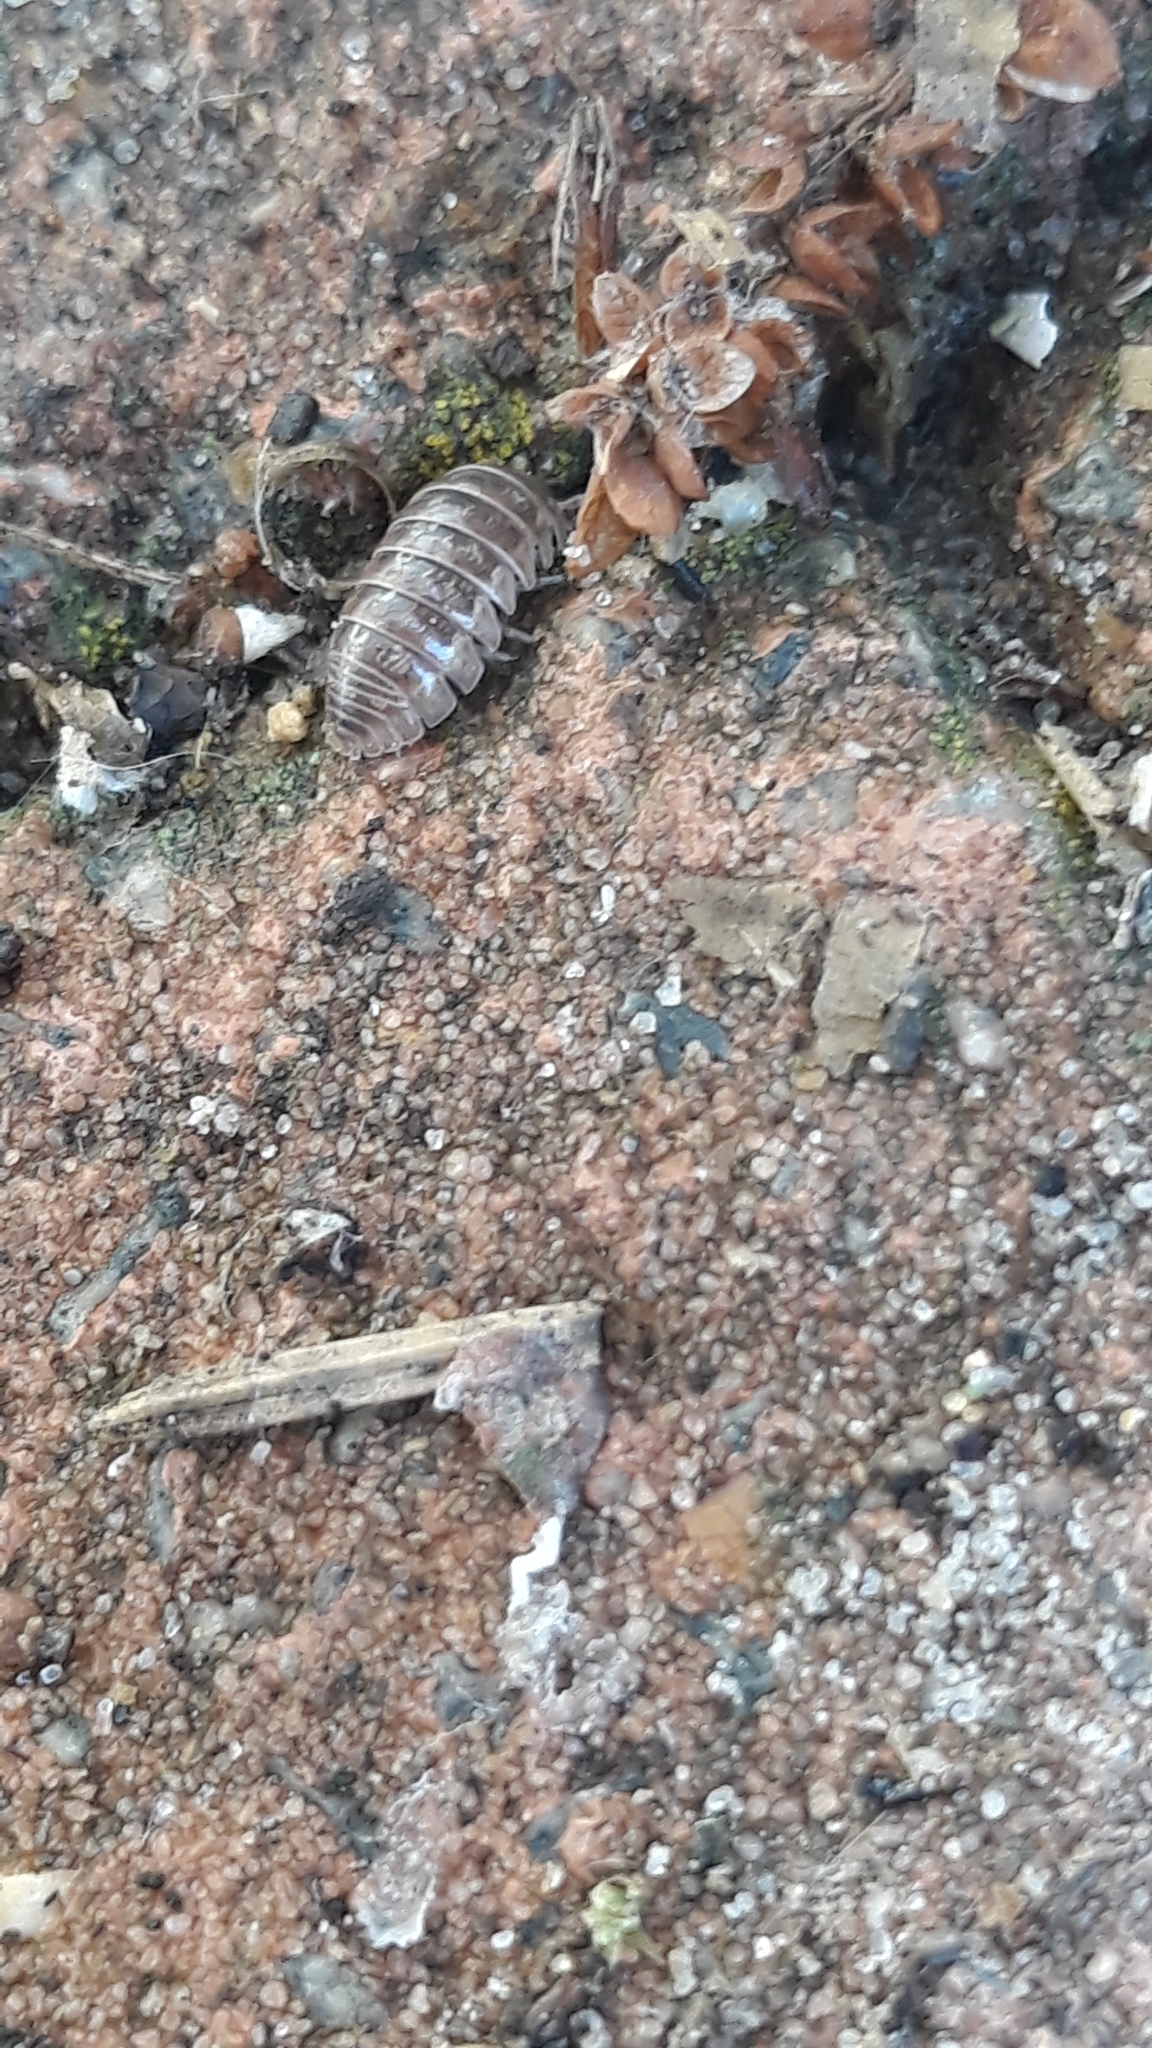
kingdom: Animalia
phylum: Arthropoda
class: Malacostraca
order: Isopoda
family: Armadillidiidae
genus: Armadillidium
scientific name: Armadillidium vulgare
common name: Common pill woodlouse
